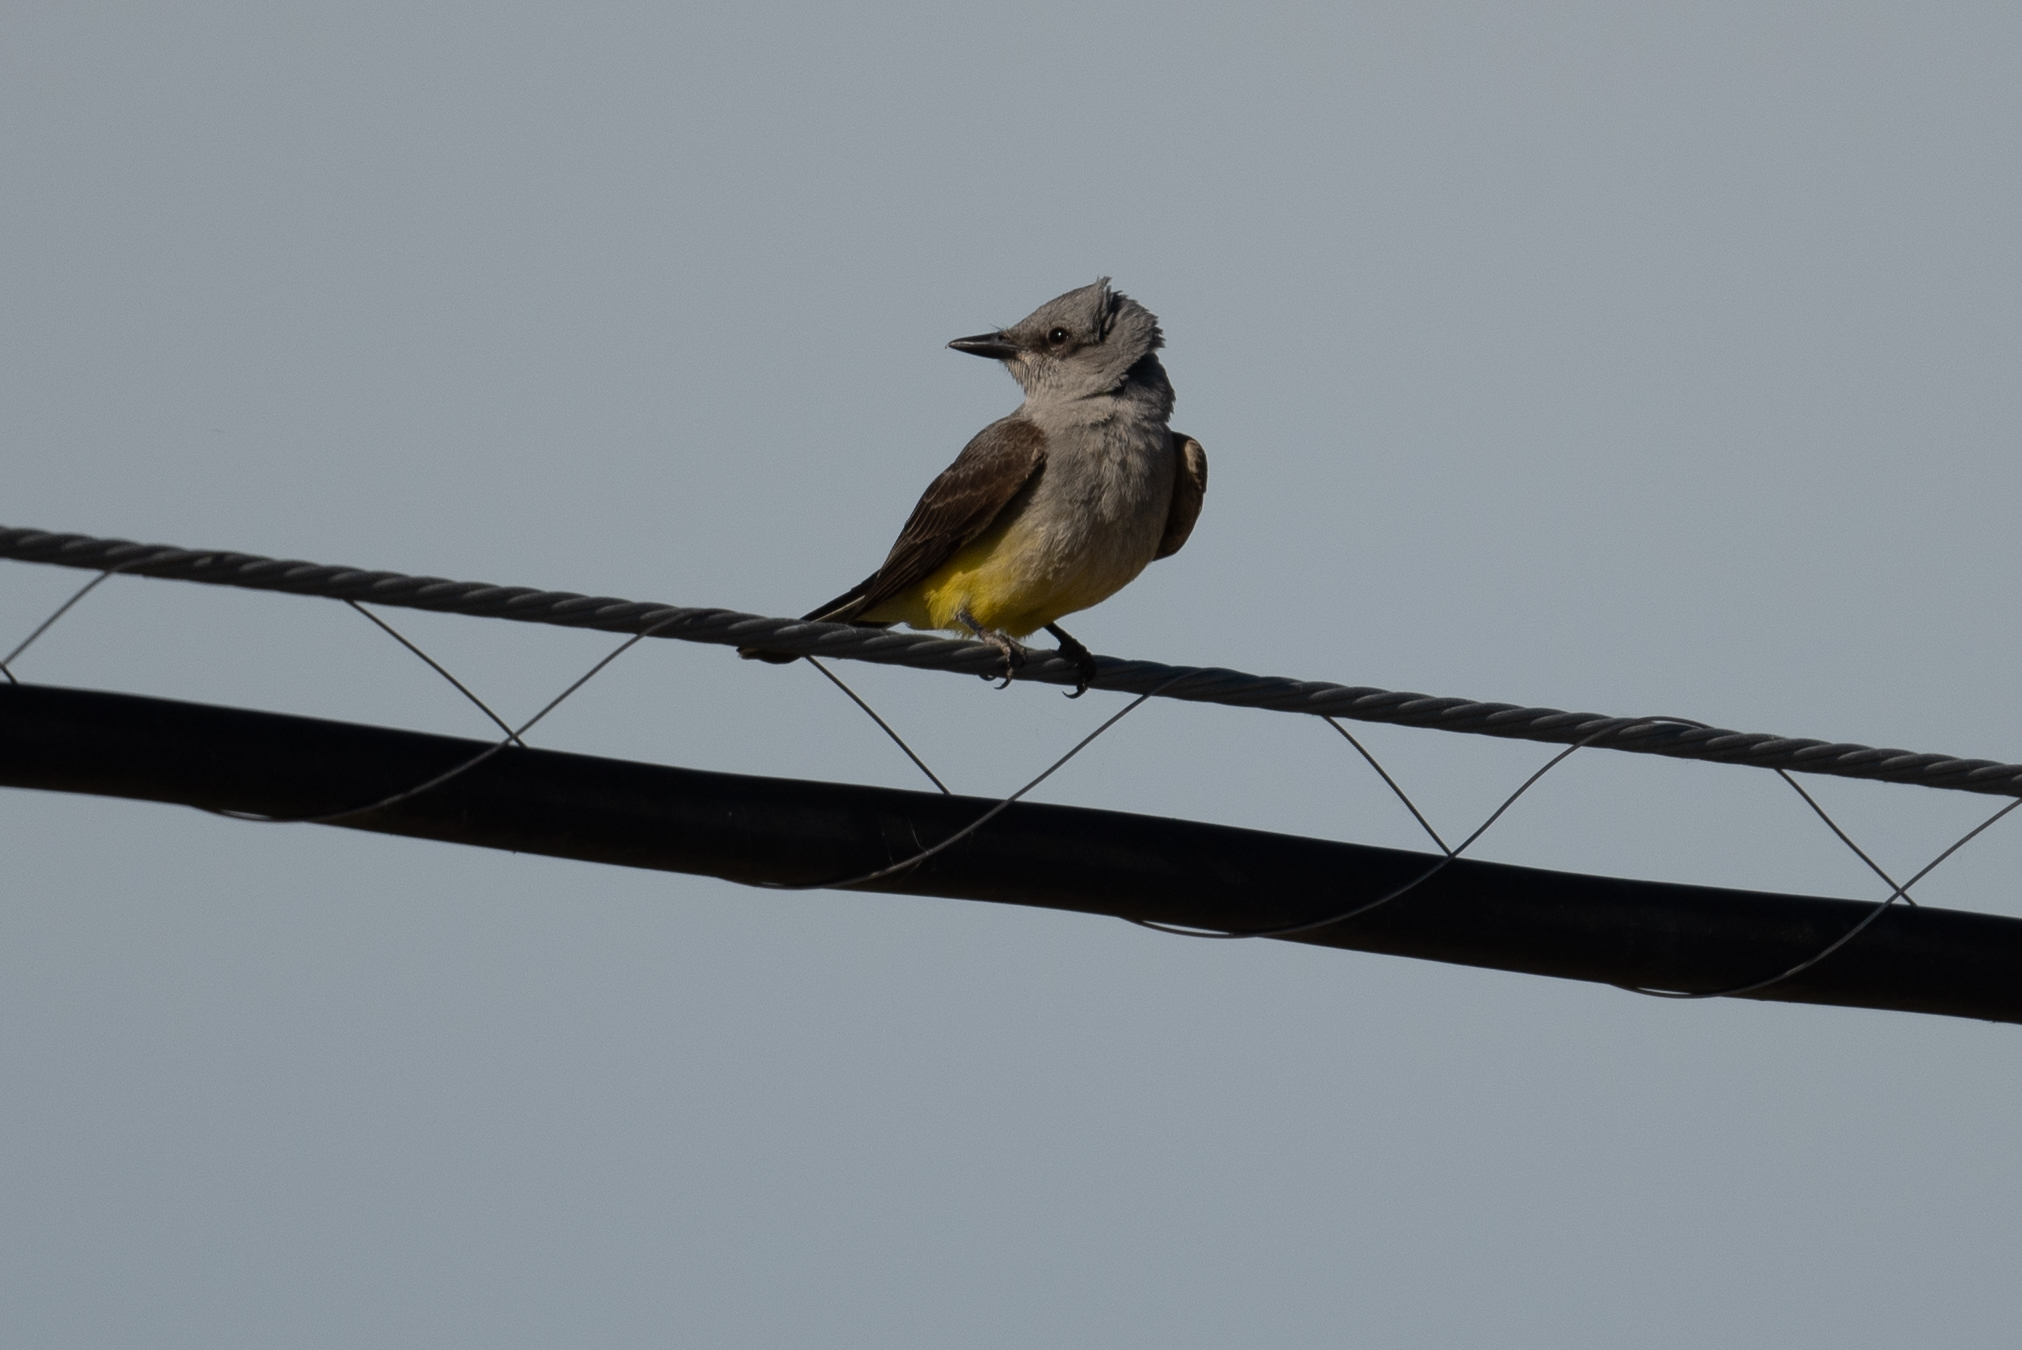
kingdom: Animalia
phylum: Chordata
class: Aves
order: Passeriformes
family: Tyrannidae
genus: Tyrannus
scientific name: Tyrannus verticalis
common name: Western kingbird
